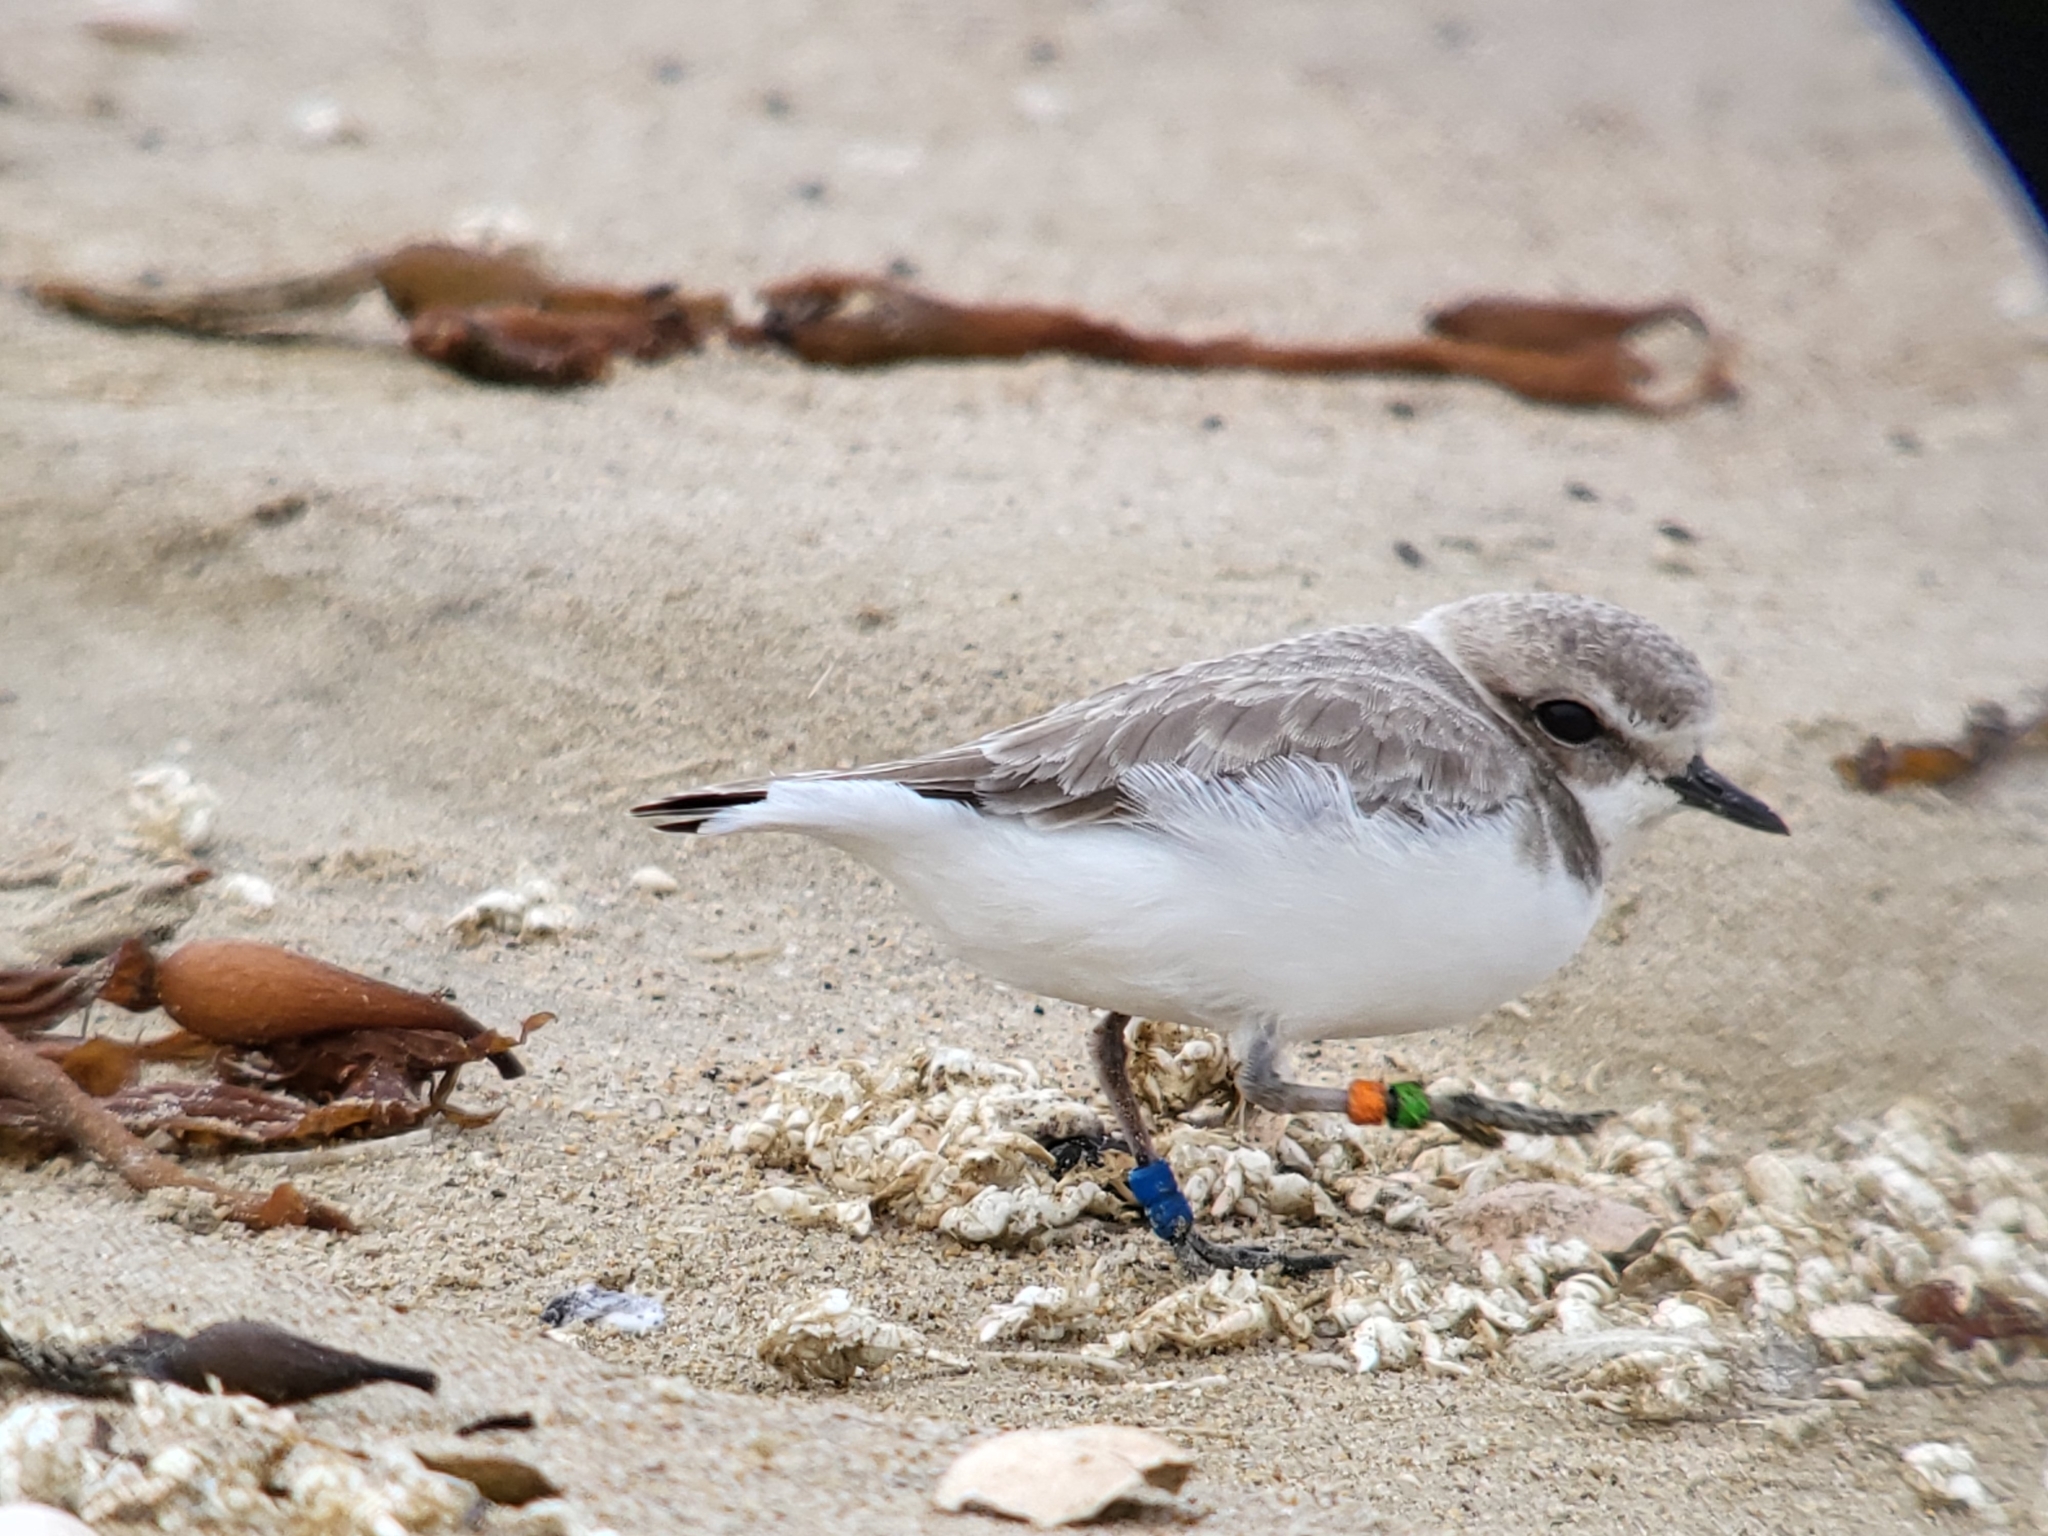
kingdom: Animalia
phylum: Chordata
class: Aves
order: Charadriiformes
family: Charadriidae
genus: Anarhynchus
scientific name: Anarhynchus
